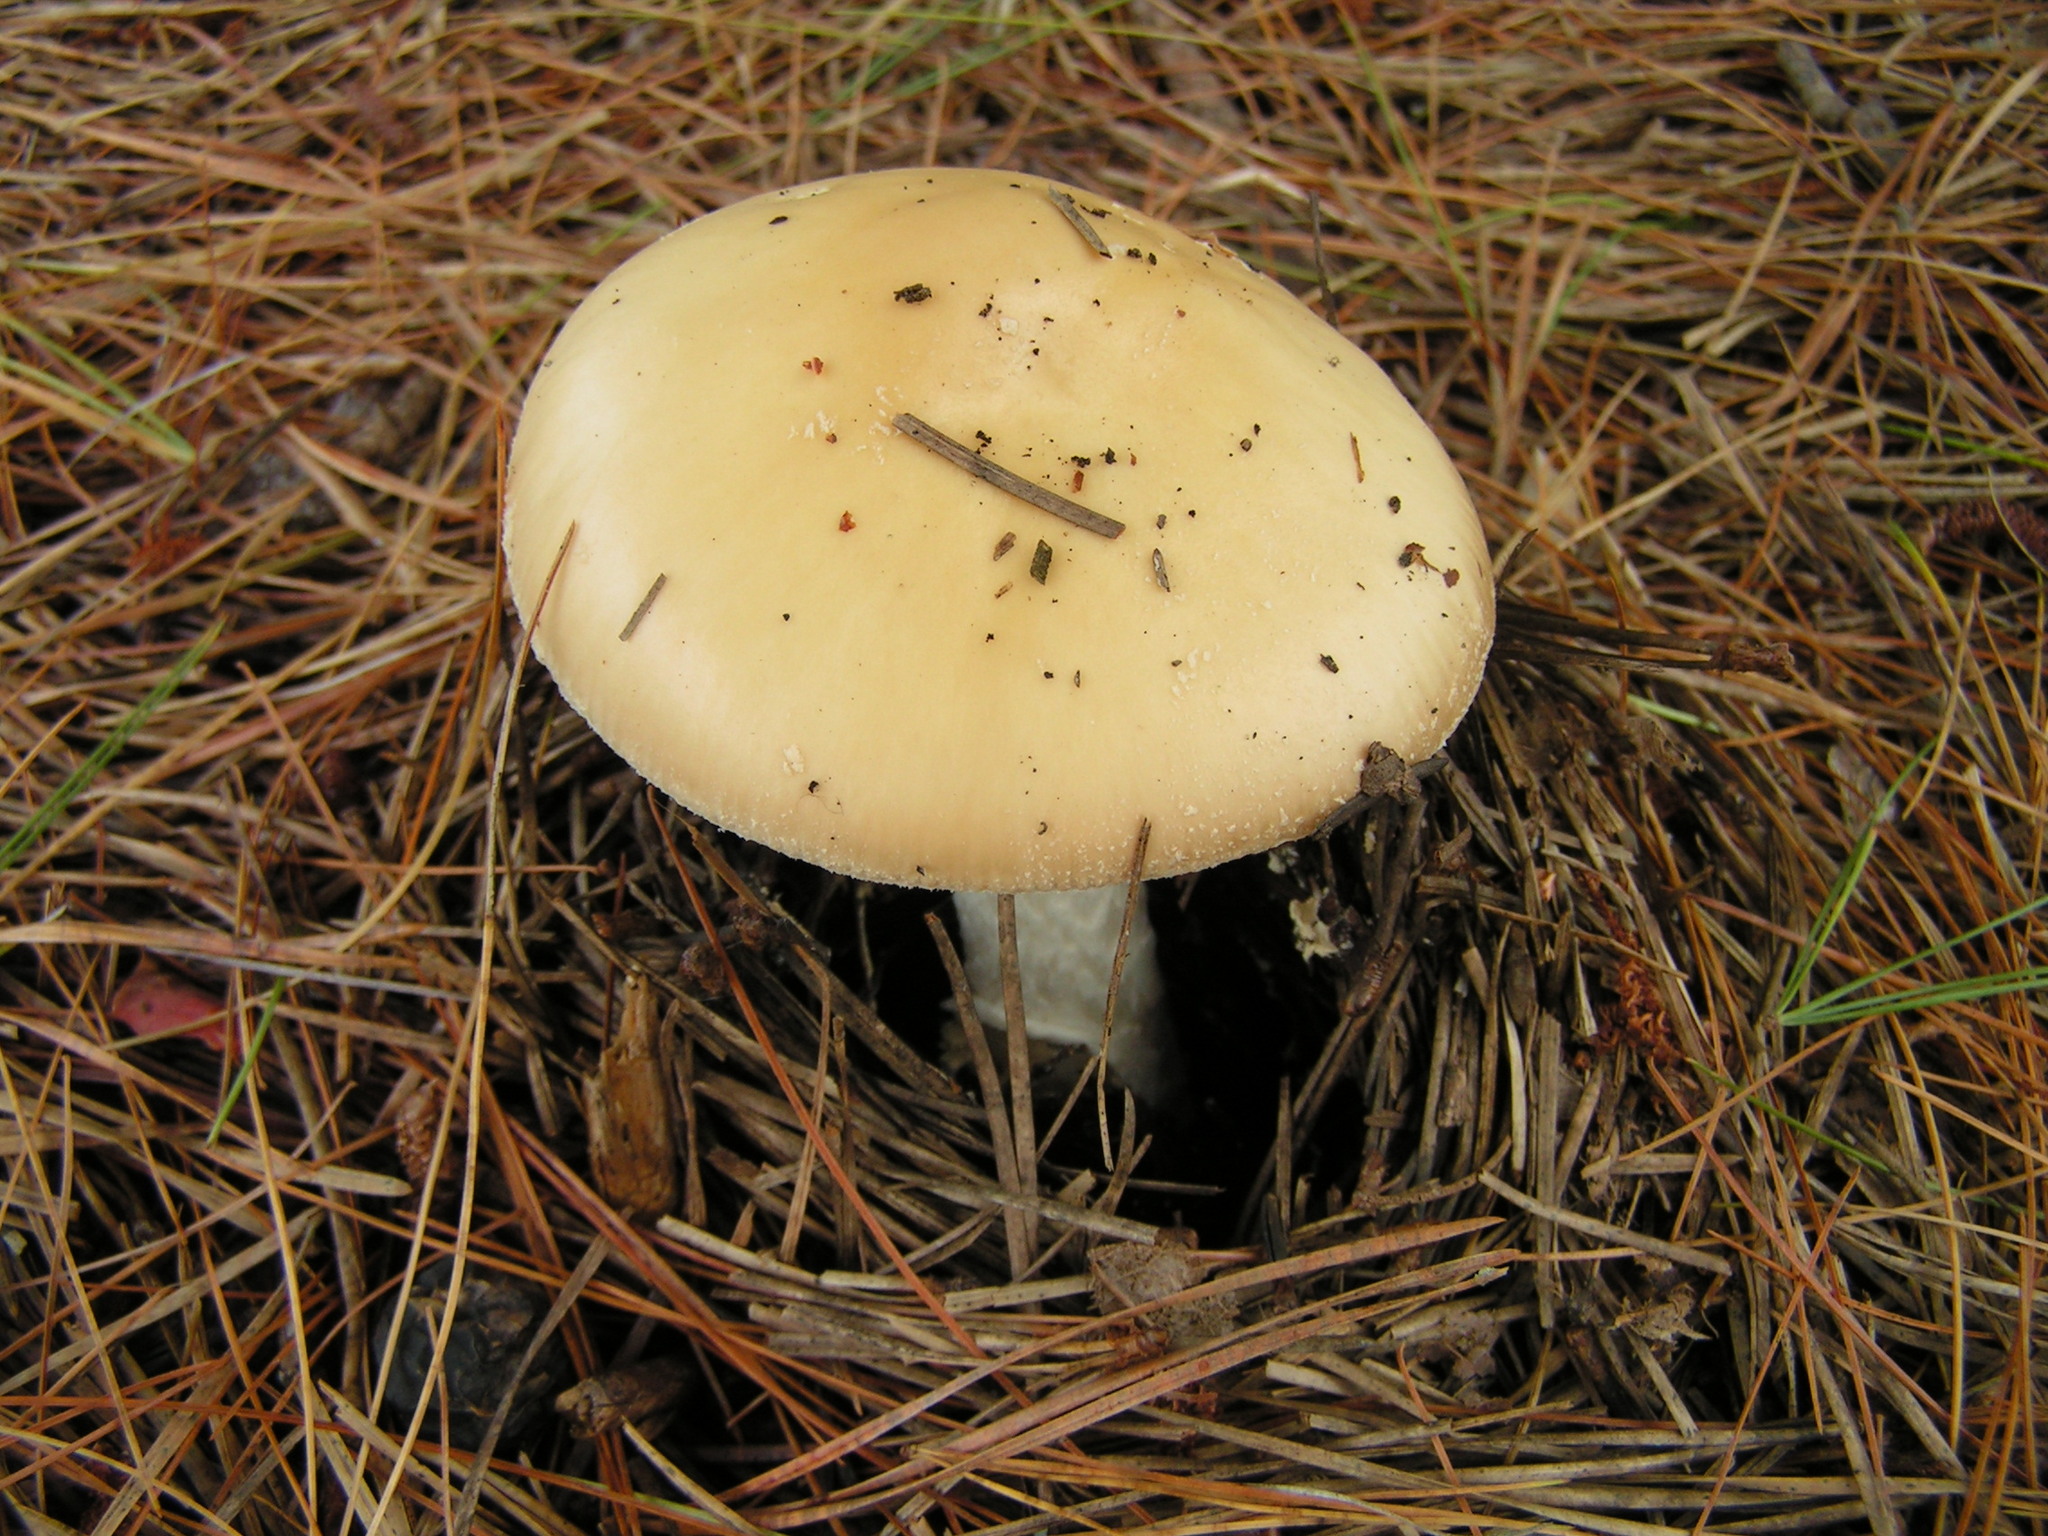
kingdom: Fungi
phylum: Basidiomycota
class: Agaricomycetes
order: Agaricales
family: Amanitaceae
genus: Amanita
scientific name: Amanita crenulata
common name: Poison champagne amanita
